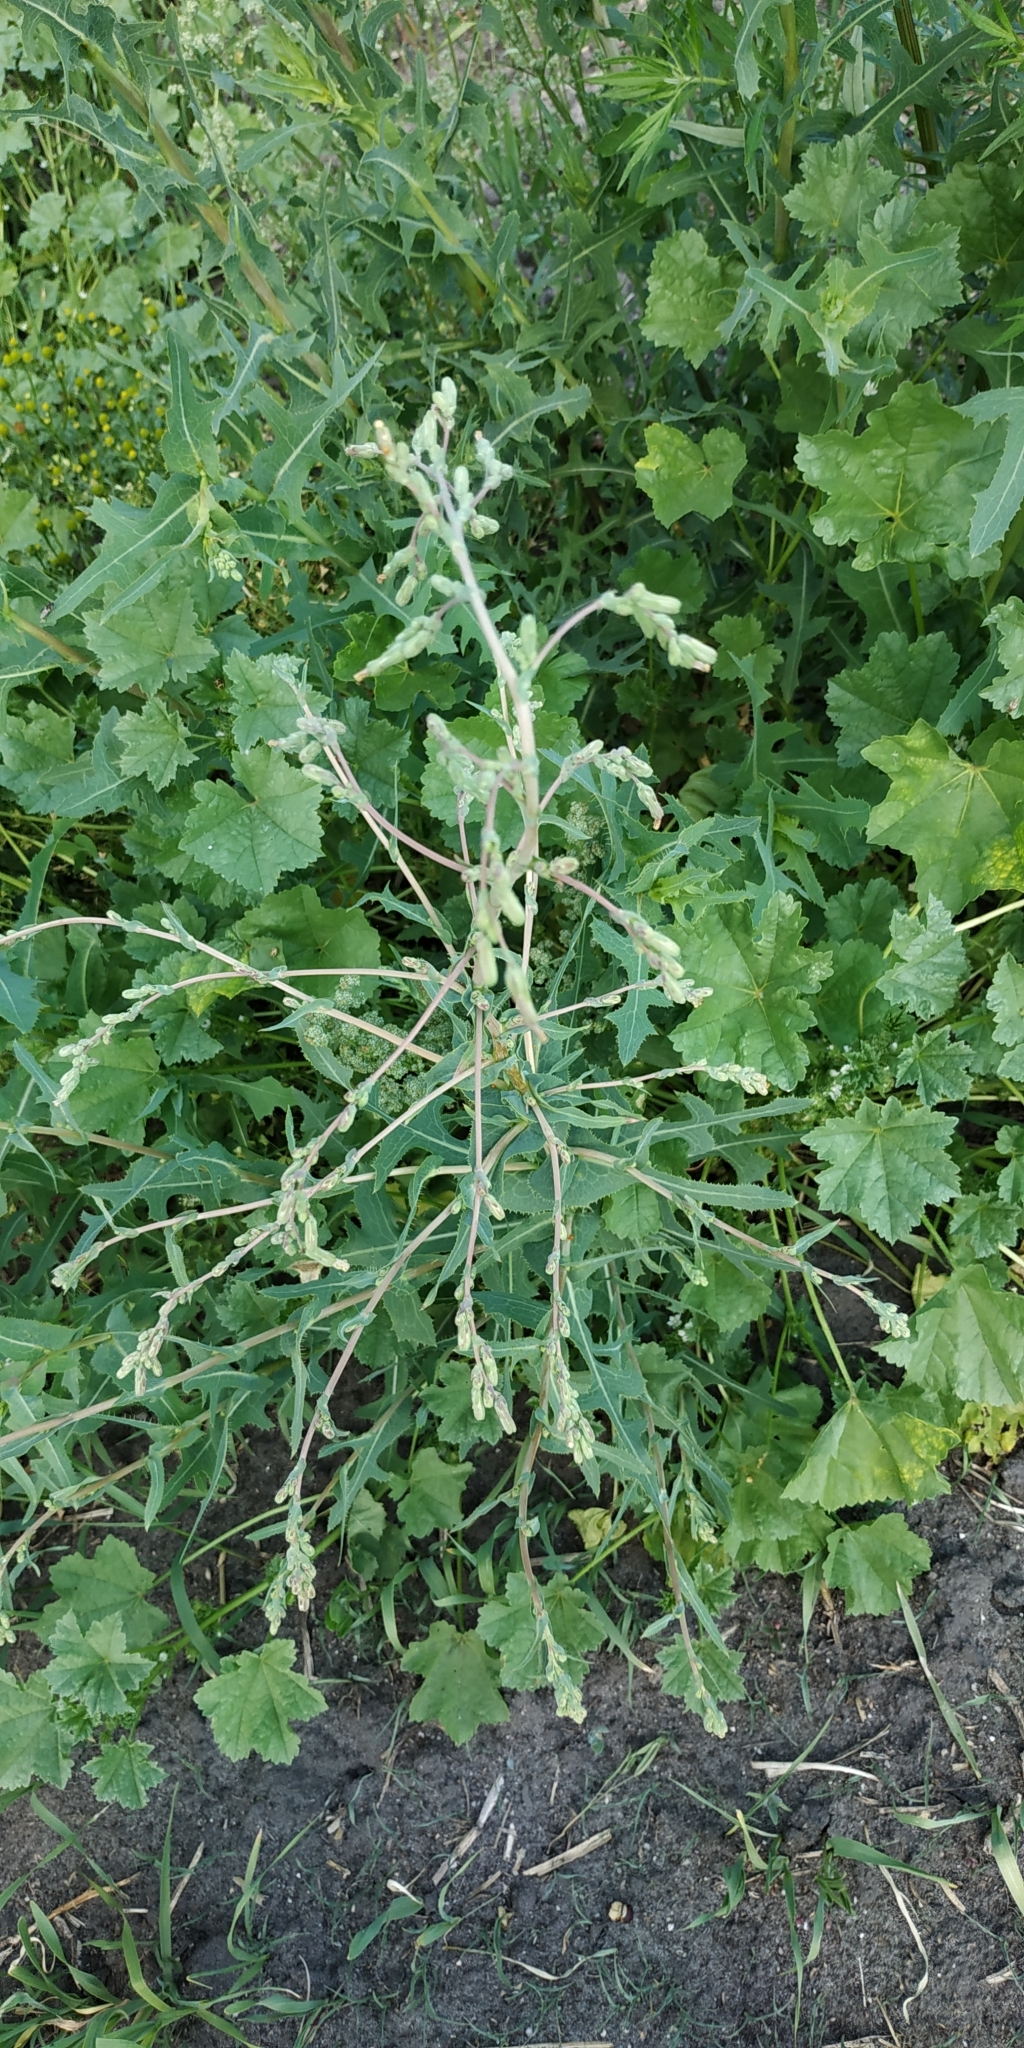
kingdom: Plantae
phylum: Tracheophyta
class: Magnoliopsida
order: Asterales
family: Asteraceae
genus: Lactuca
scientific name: Lactuca serriola
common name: Prickly lettuce
